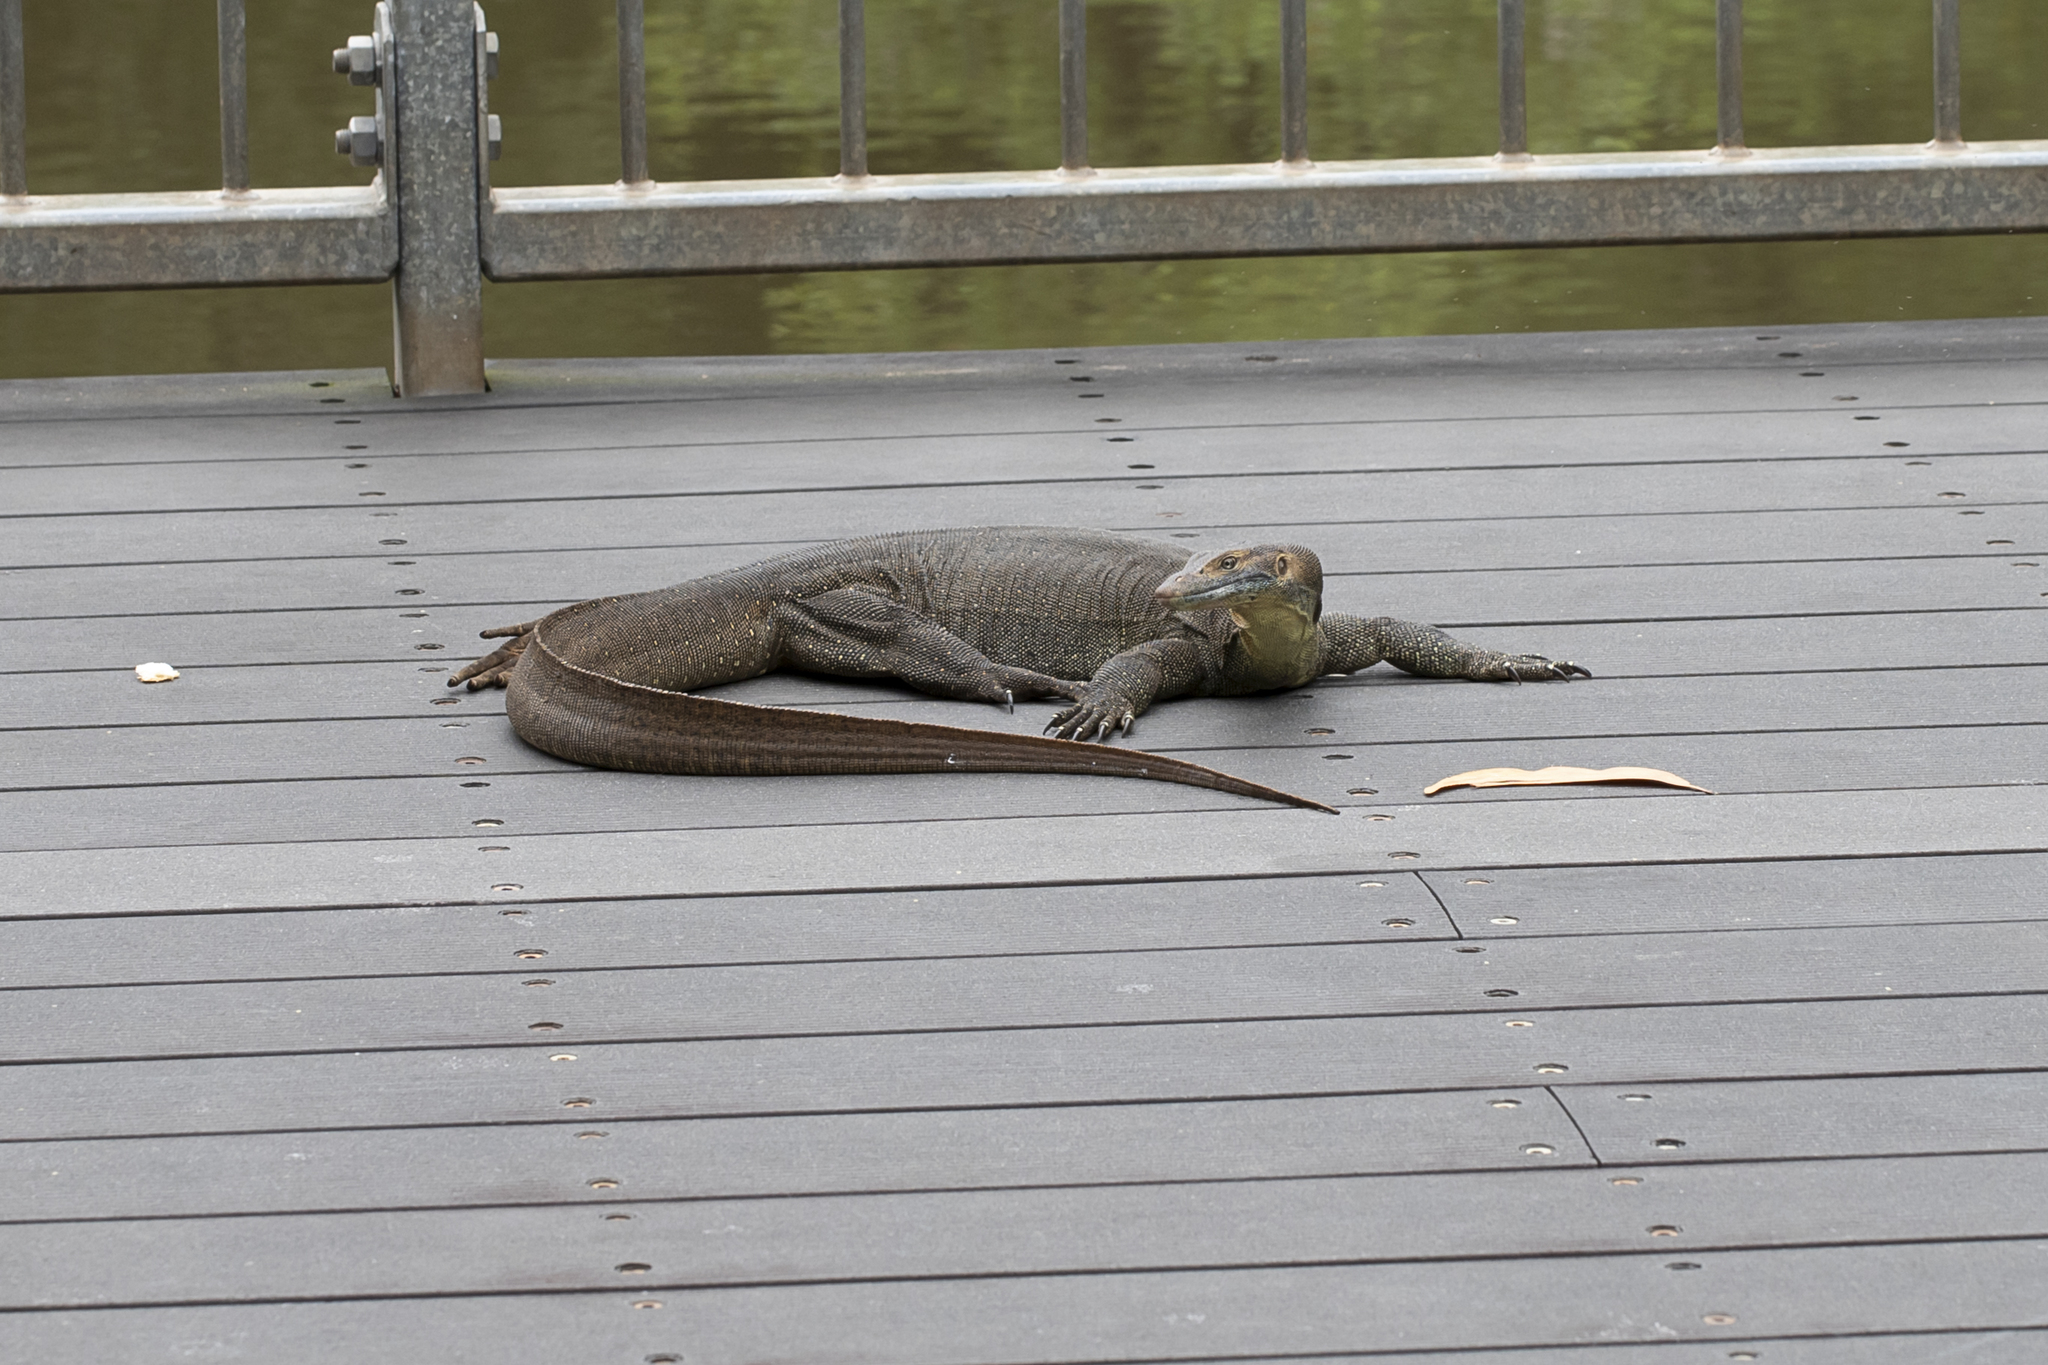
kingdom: Animalia
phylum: Chordata
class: Squamata
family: Varanidae
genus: Varanus
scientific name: Varanus mertensi
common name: Mertens's water monitor
